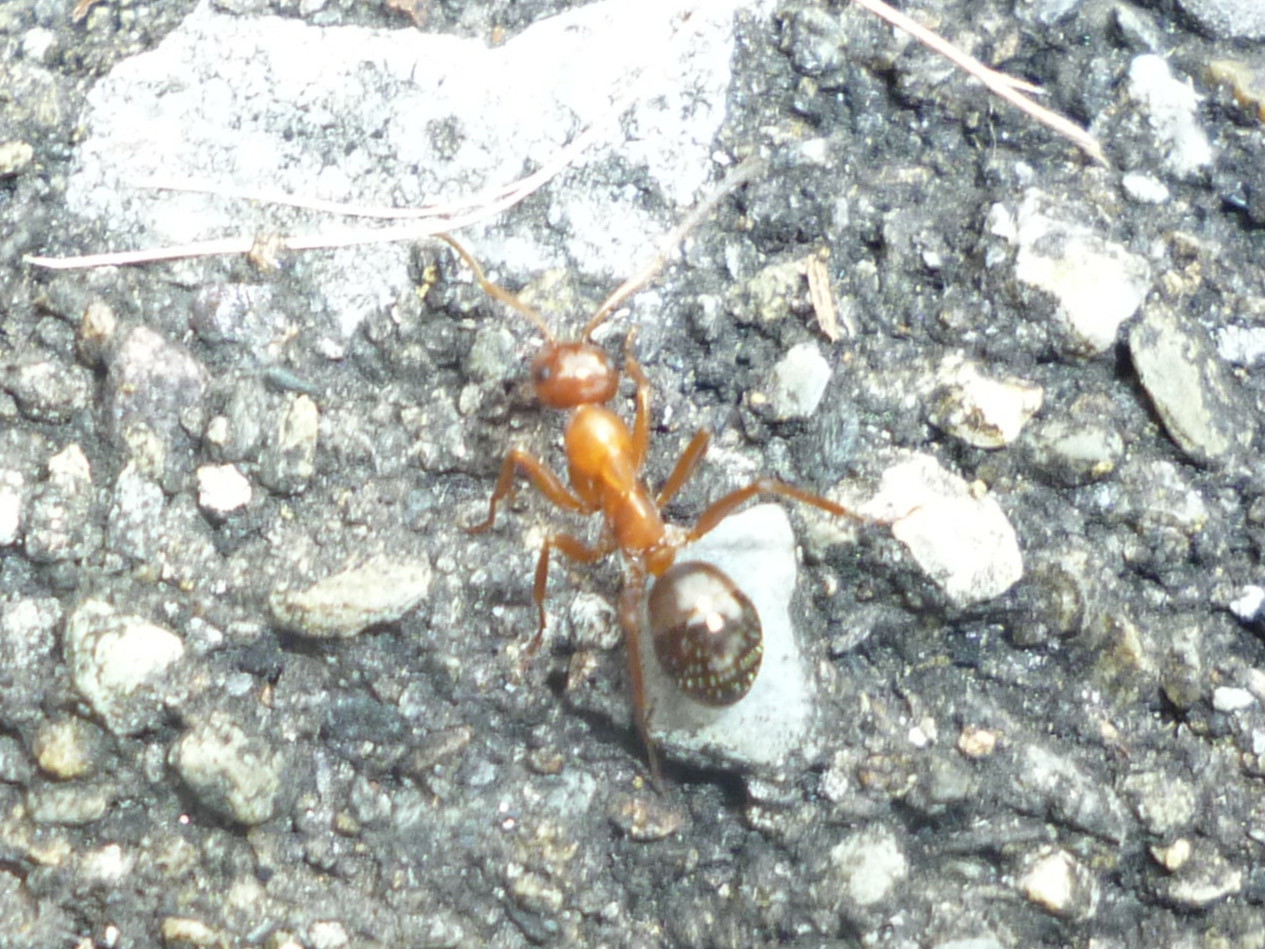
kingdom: Animalia
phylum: Arthropoda
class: Insecta
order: Hymenoptera
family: Formicidae
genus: Formica
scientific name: Formica
